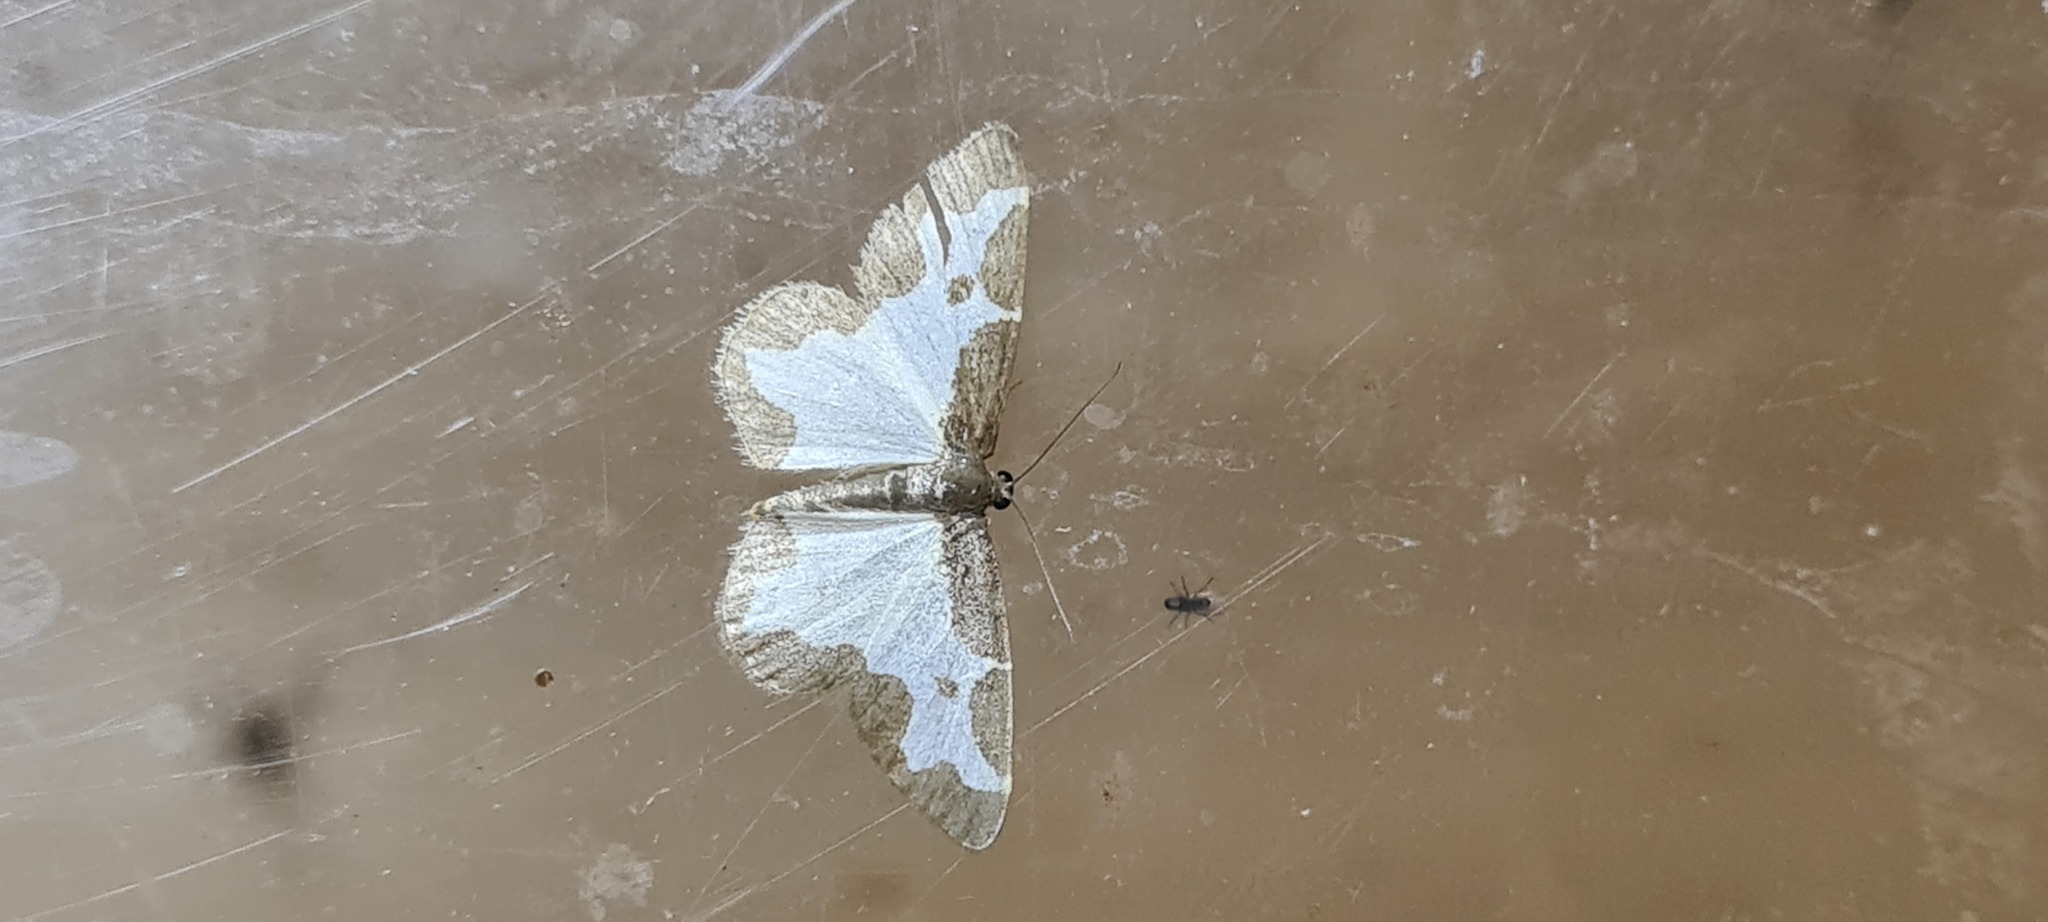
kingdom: Animalia
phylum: Arthropoda
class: Insecta
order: Lepidoptera
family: Geometridae
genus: Lomaspilis
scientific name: Lomaspilis marginata
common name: Clouded border
